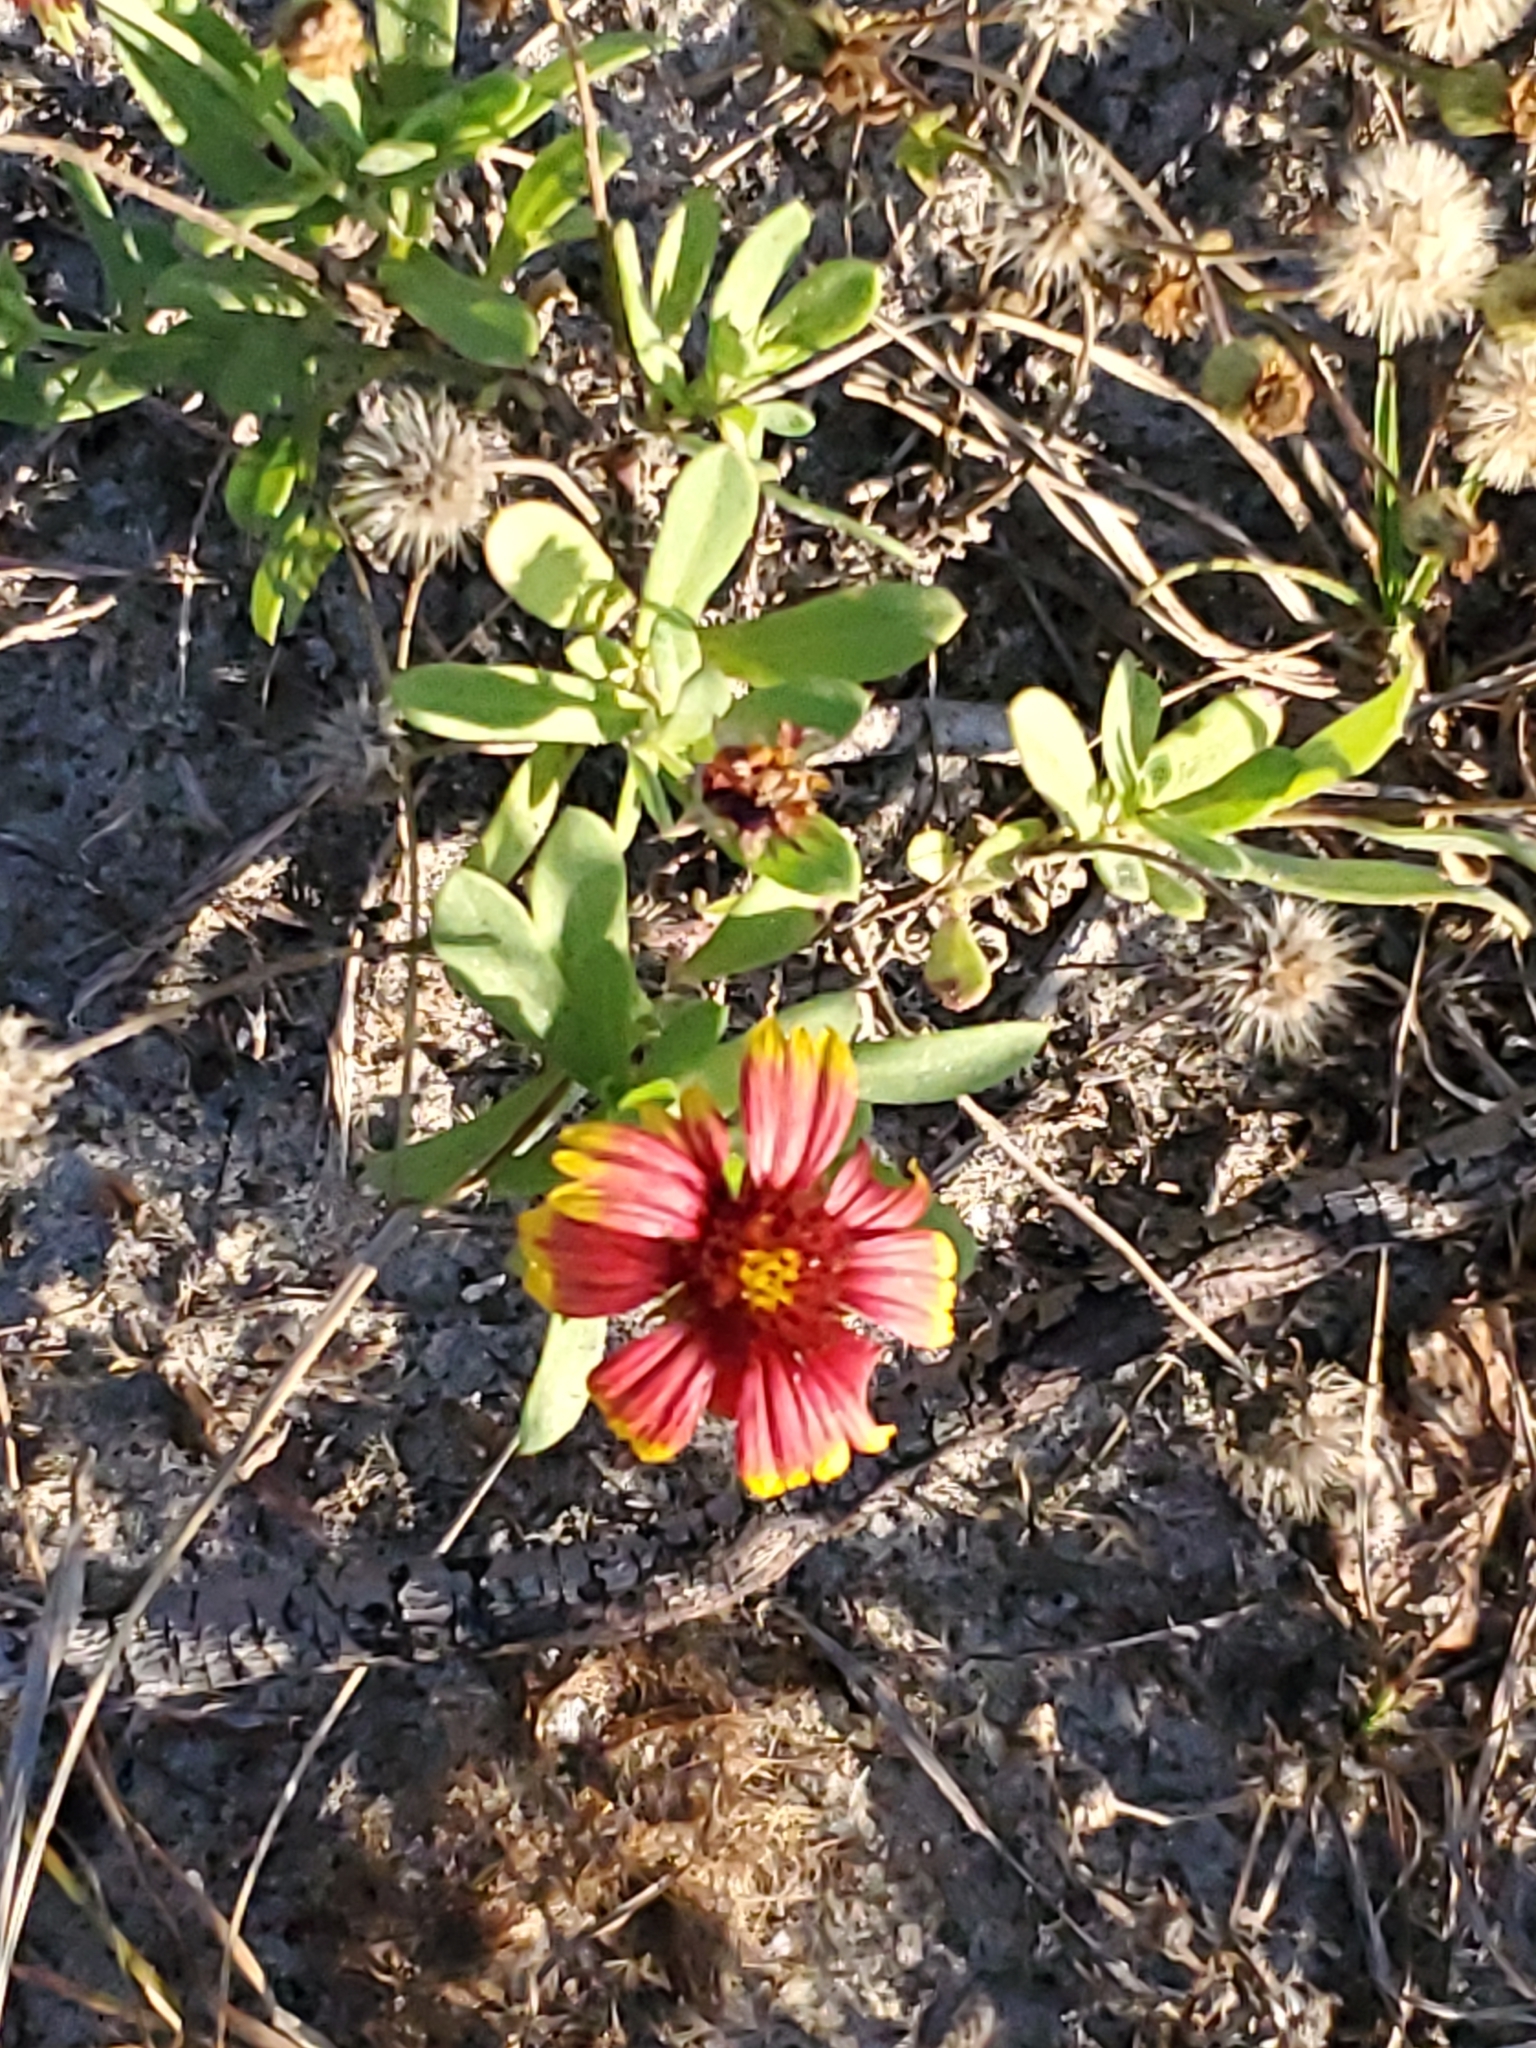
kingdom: Plantae
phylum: Tracheophyta
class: Magnoliopsida
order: Asterales
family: Asteraceae
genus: Gaillardia
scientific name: Gaillardia pulchella
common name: Firewheel
